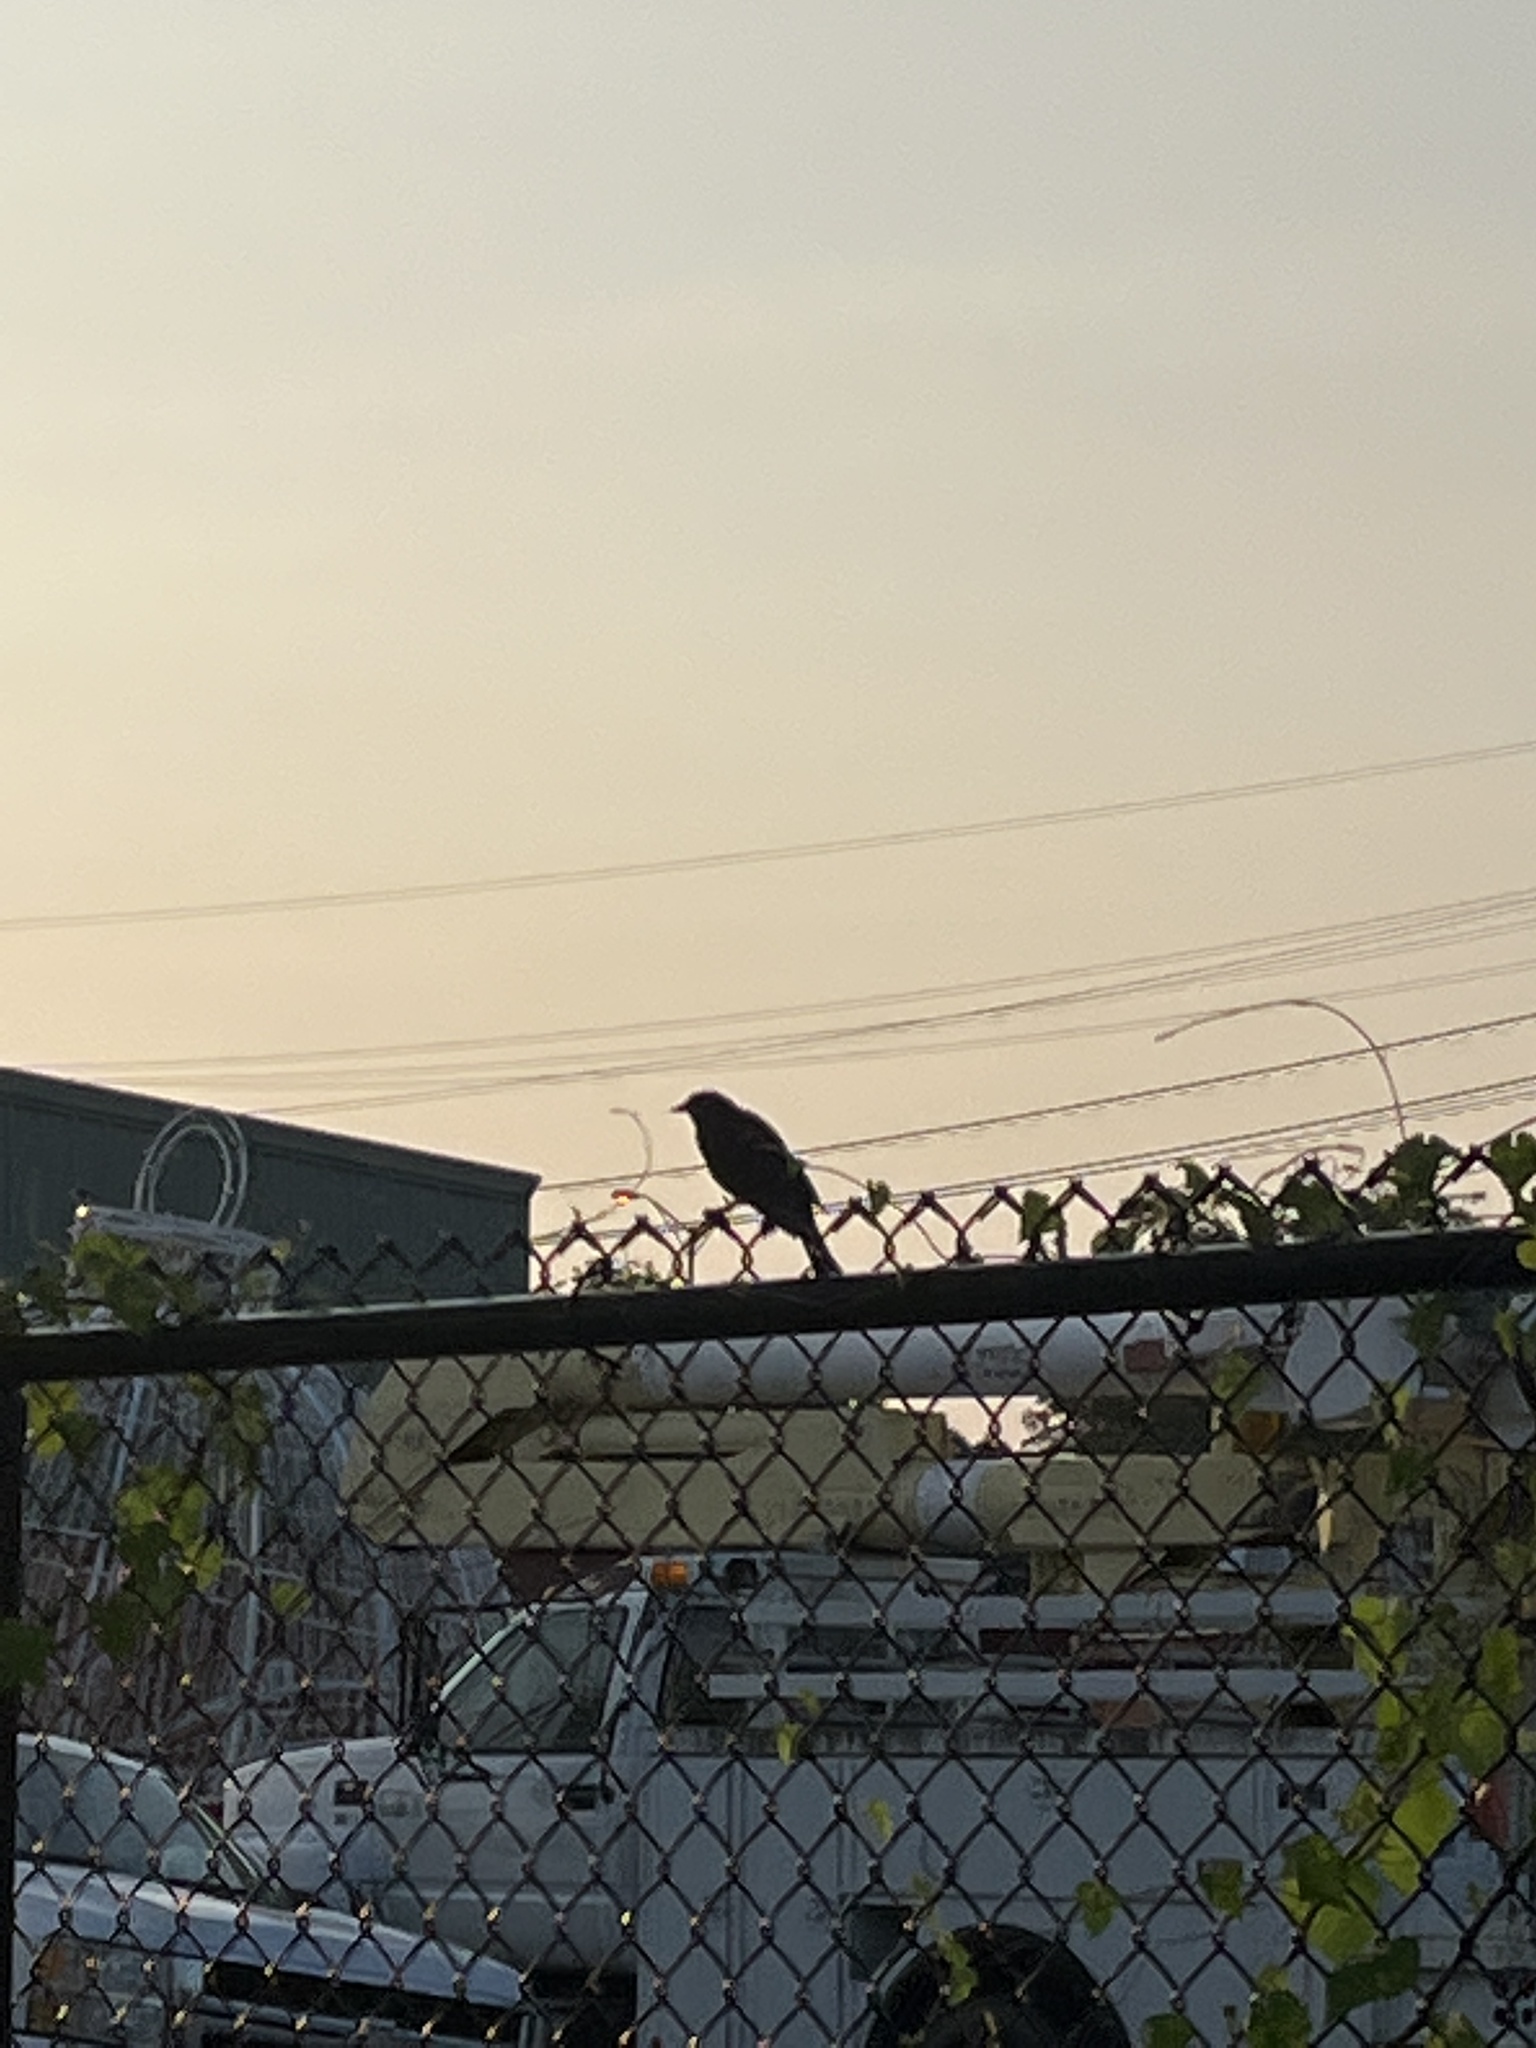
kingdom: Animalia
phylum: Chordata
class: Aves
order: Passeriformes
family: Icteridae
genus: Agelaius
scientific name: Agelaius phoeniceus
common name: Red-winged blackbird
